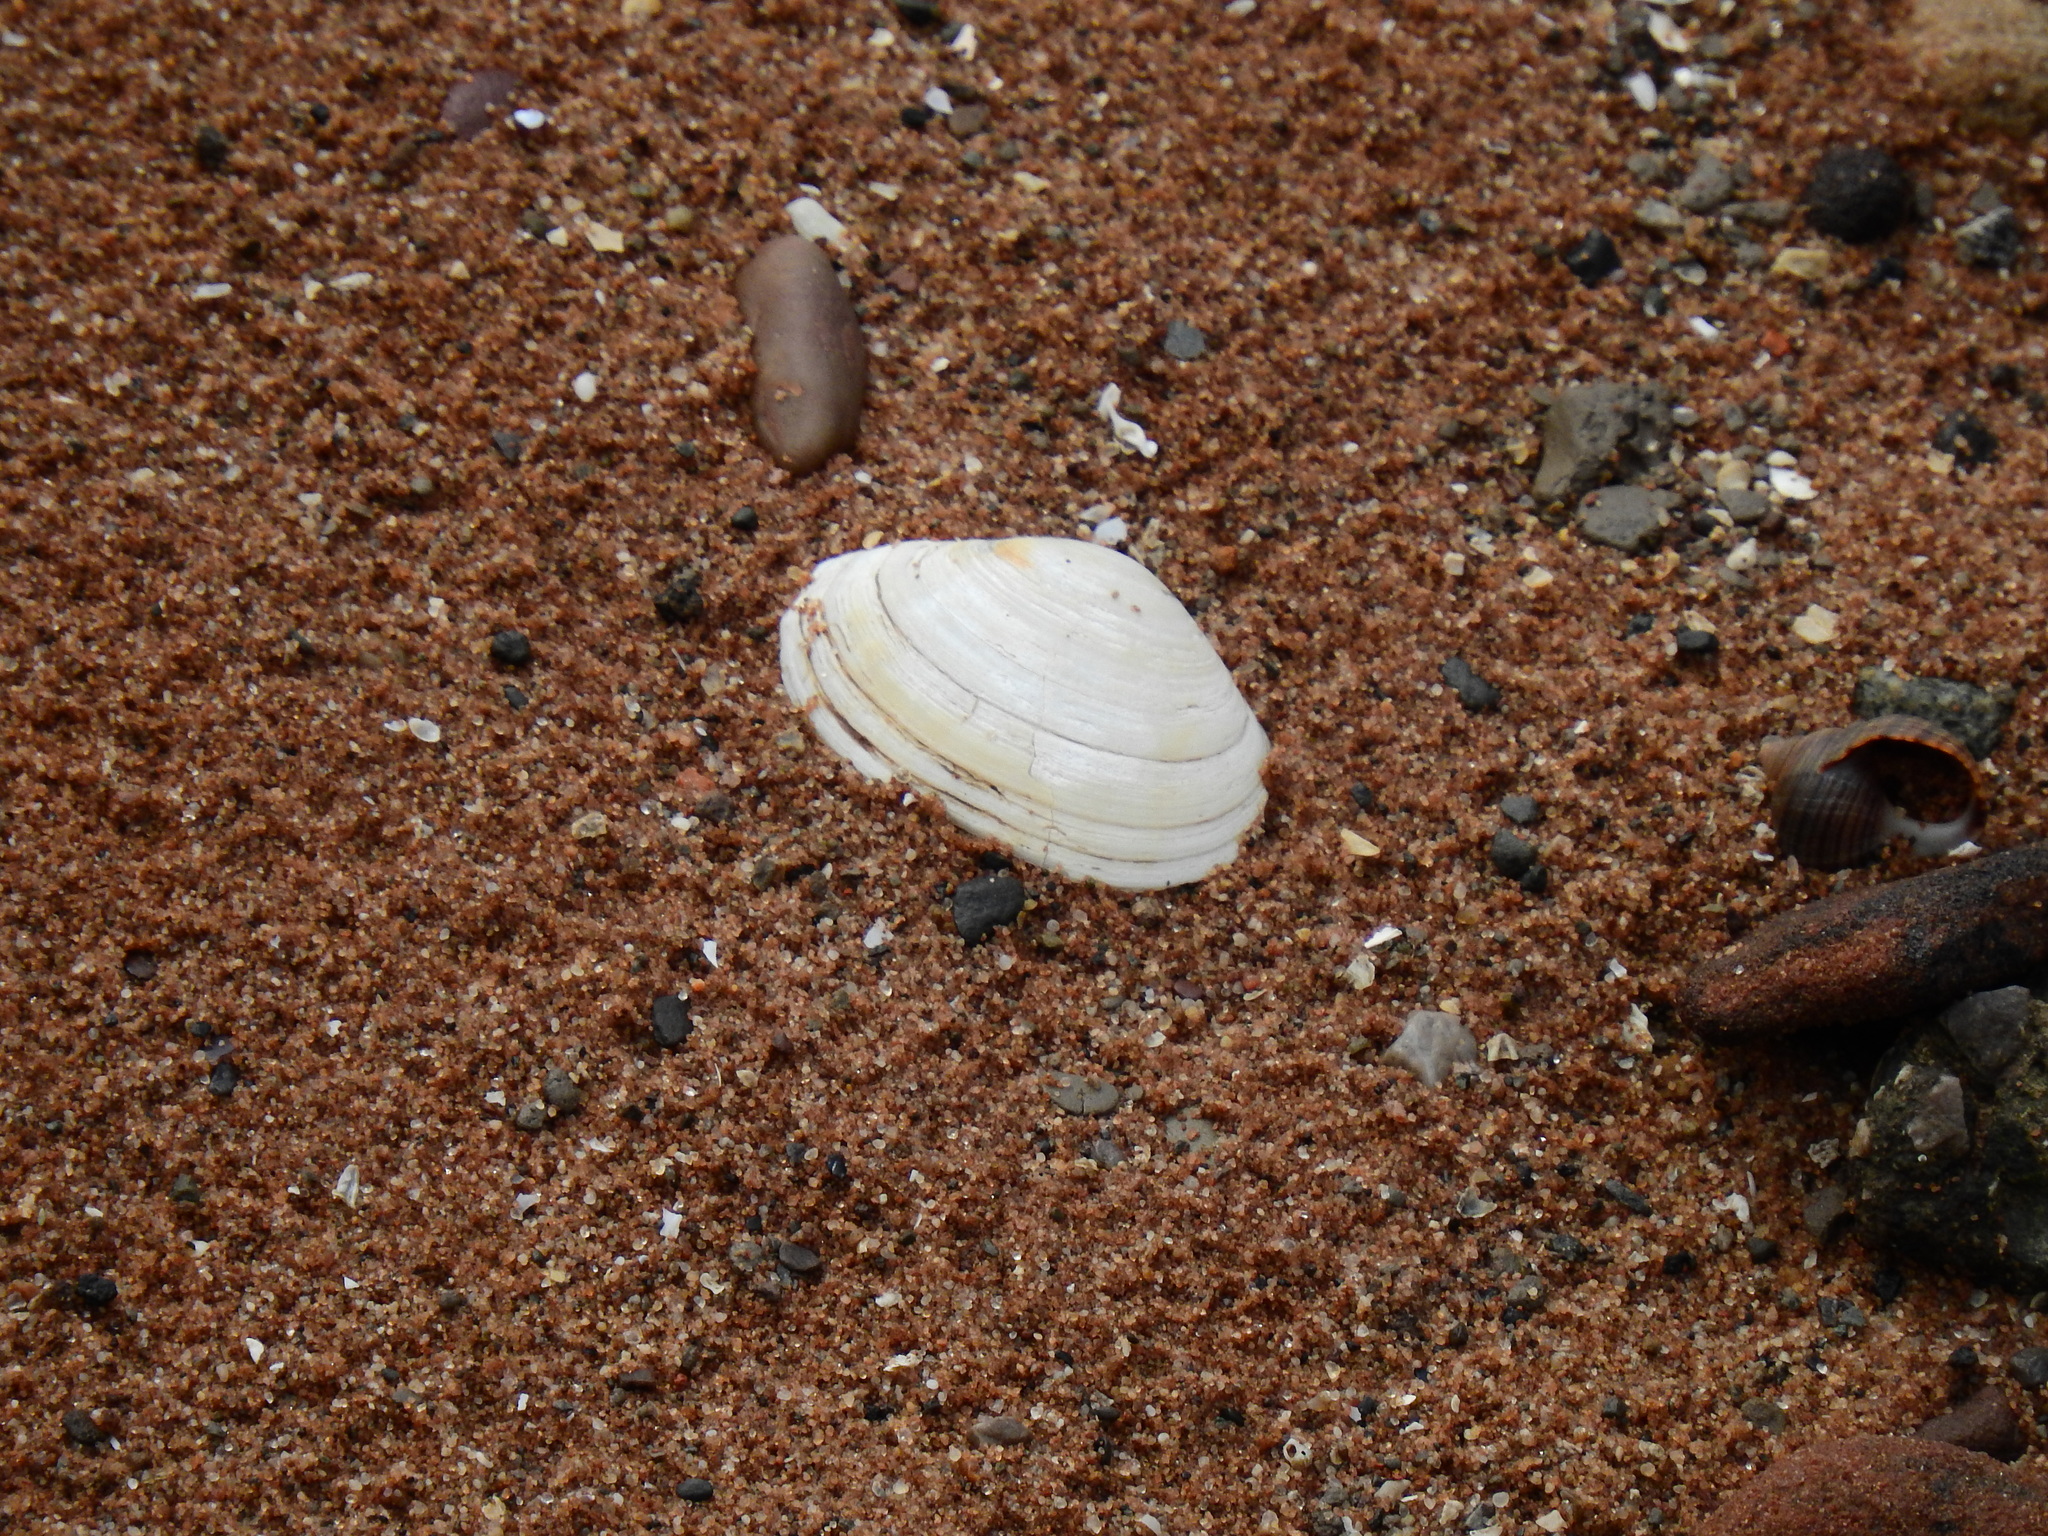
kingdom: Animalia
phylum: Mollusca
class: Bivalvia
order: Venerida
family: Mactridae
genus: Spisula
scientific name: Spisula solida
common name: Thick trough shell
